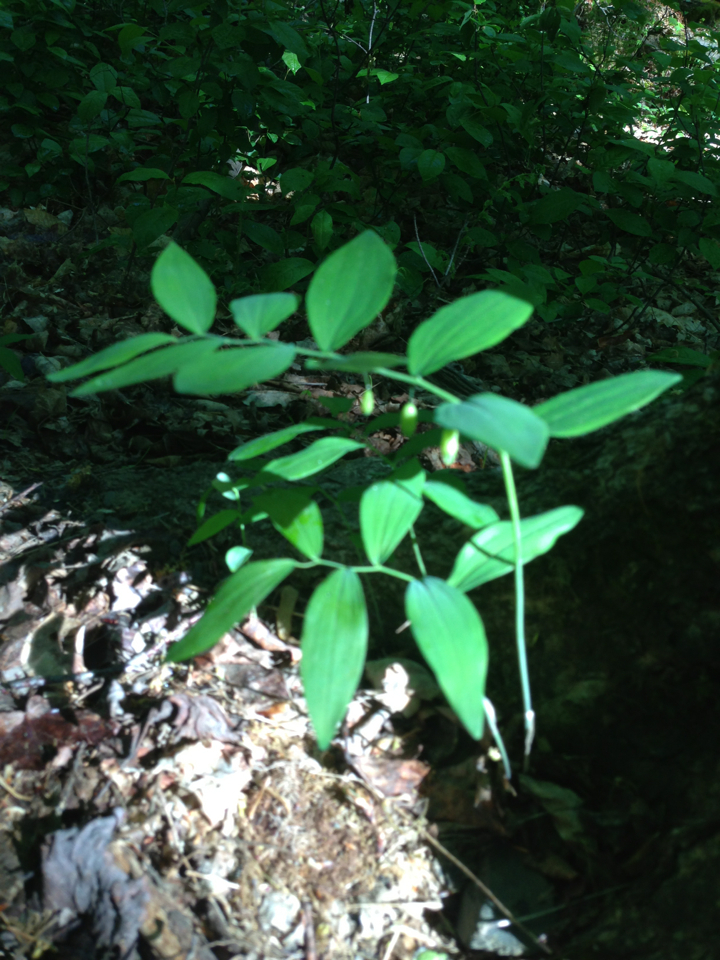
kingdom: Plantae
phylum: Tracheophyta
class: Liliopsida
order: Asparagales
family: Asparagaceae
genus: Polygonatum
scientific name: Polygonatum pubescens
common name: Downy solomon's seal
